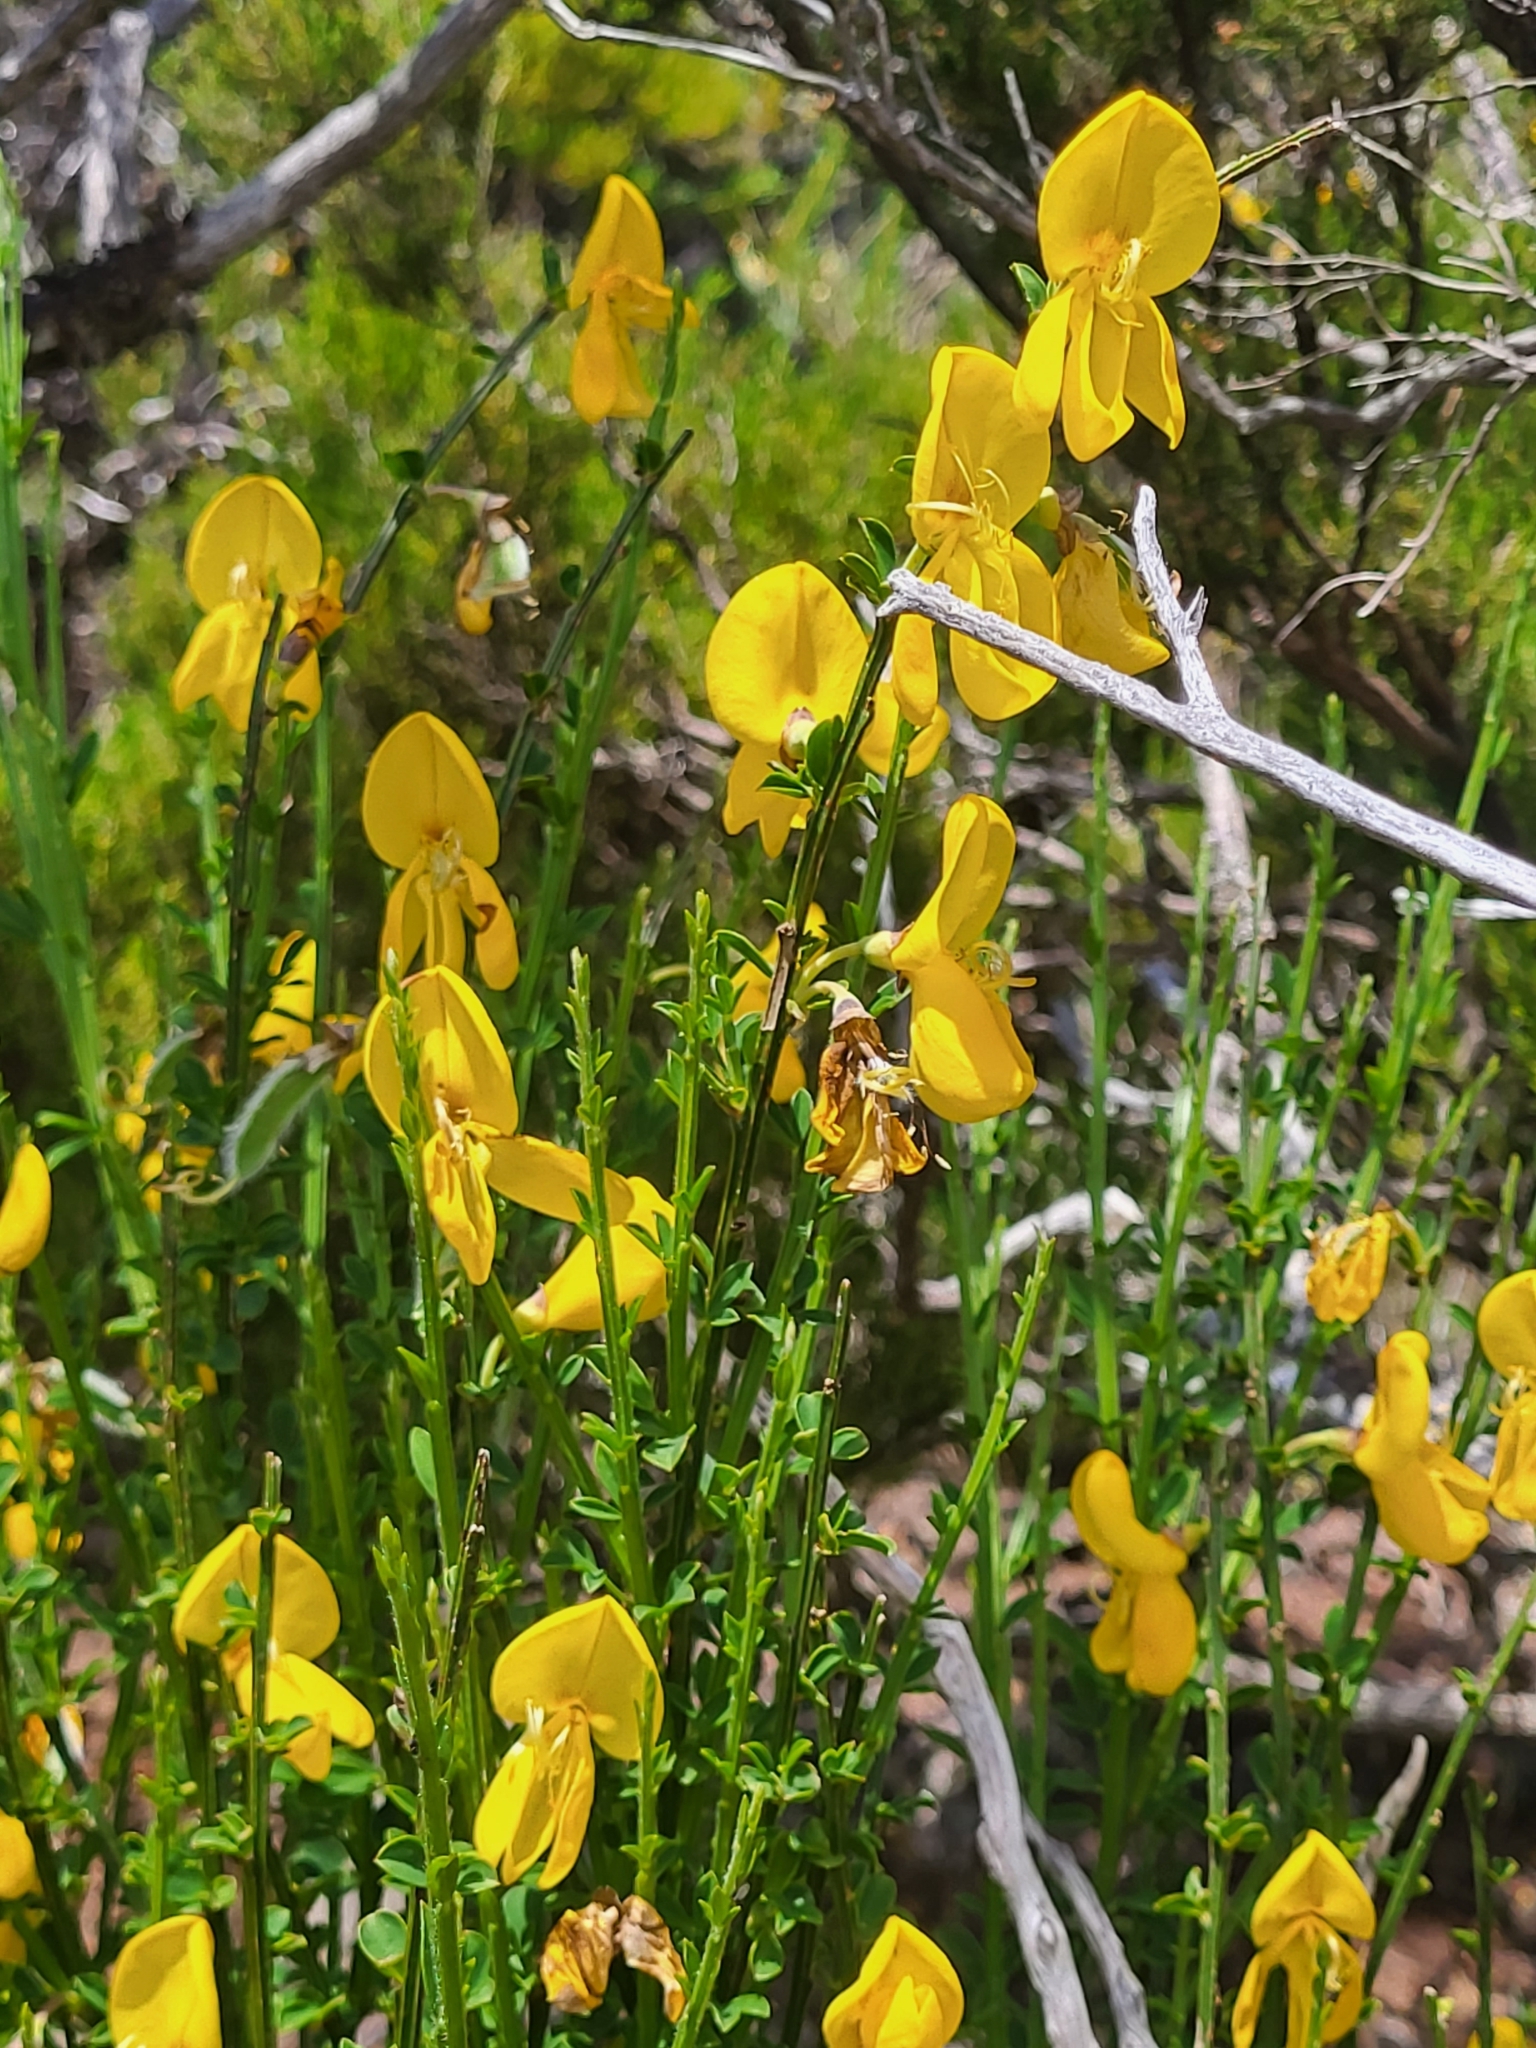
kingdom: Plantae
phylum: Tracheophyta
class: Magnoliopsida
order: Fabales
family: Fabaceae
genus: Cytisus
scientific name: Cytisus scoparius
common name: Scotch broom
